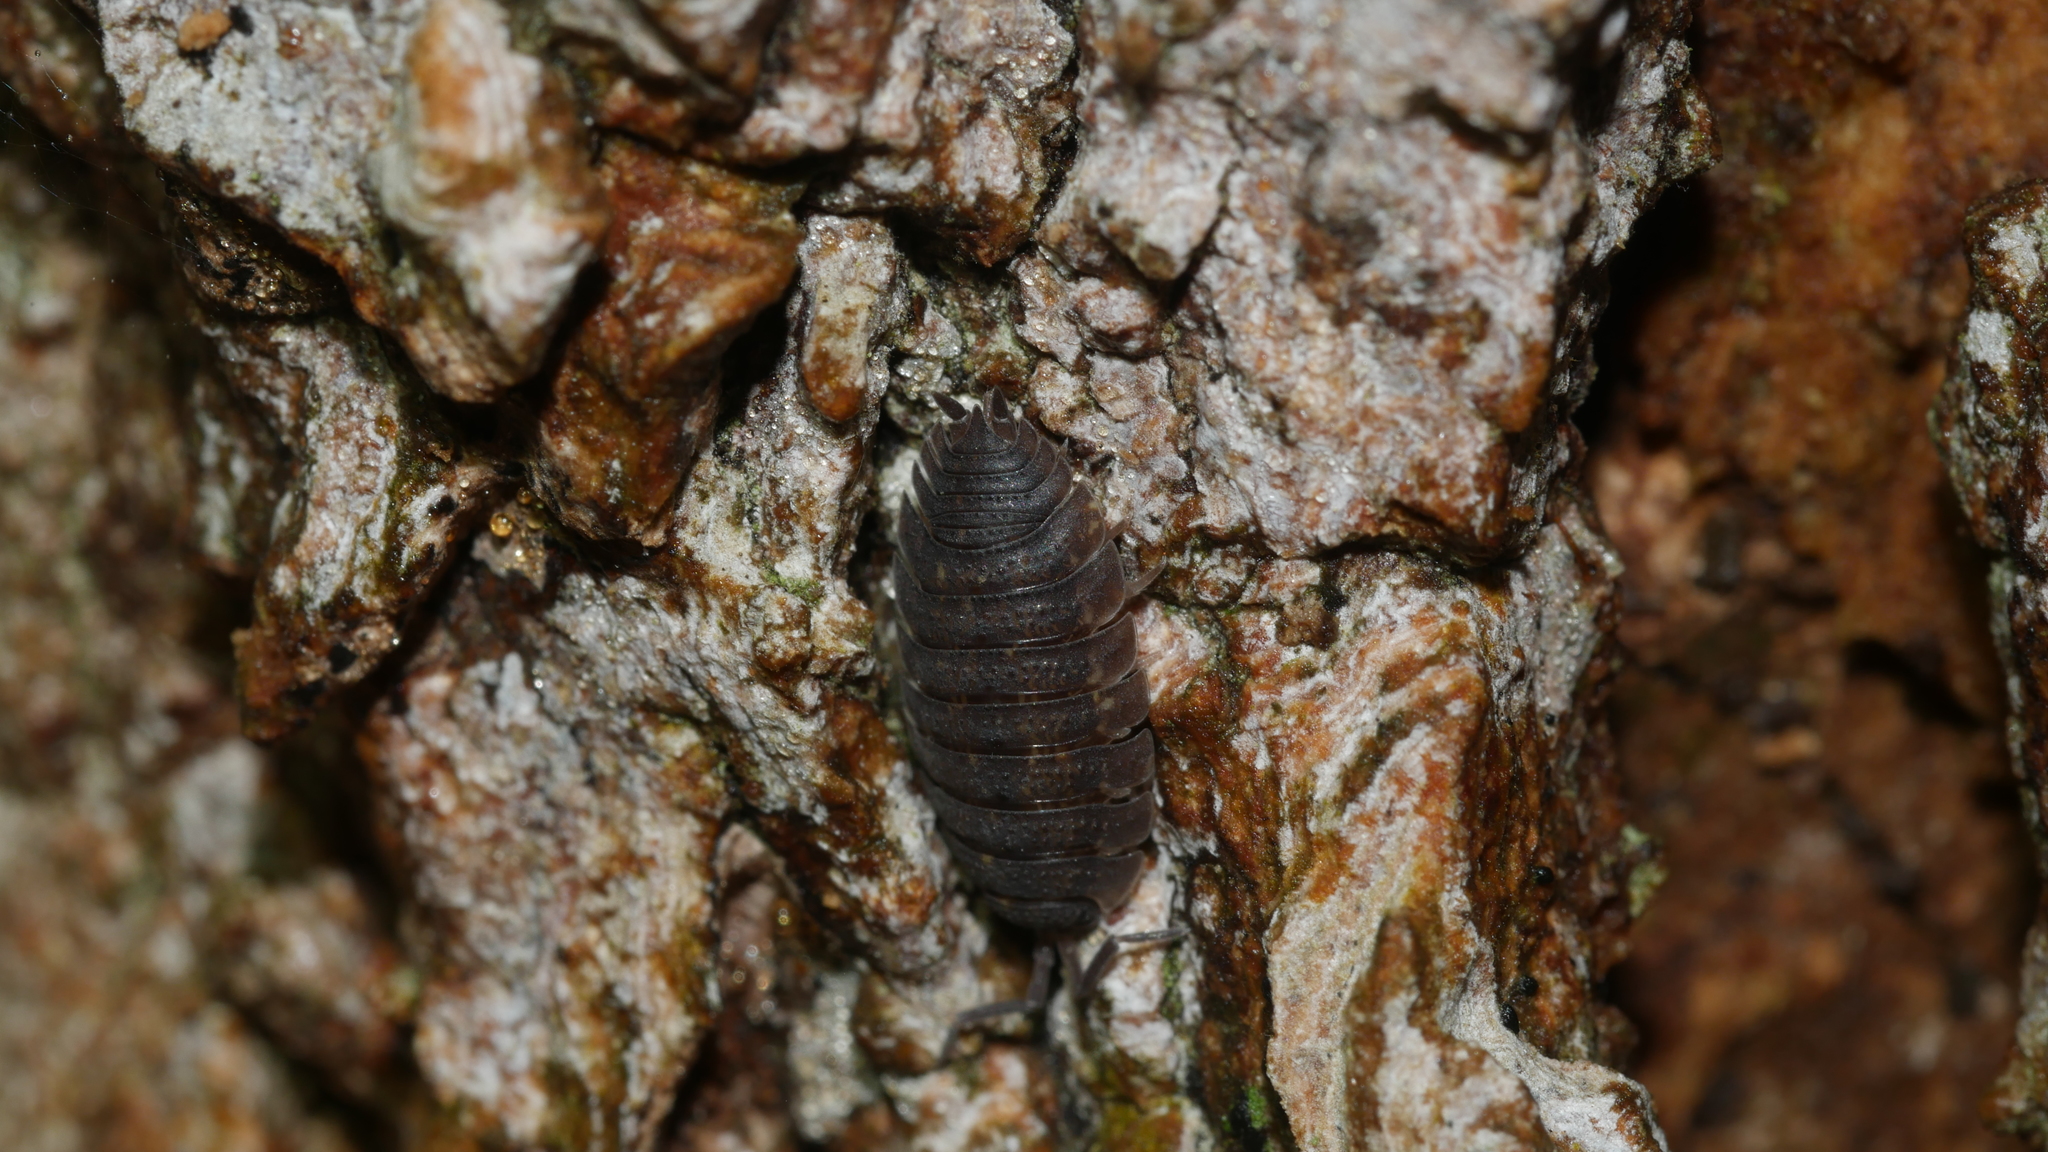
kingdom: Animalia
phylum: Arthropoda
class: Malacostraca
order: Isopoda
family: Porcellionidae
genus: Porcellio
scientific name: Porcellio scaber
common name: Common rough woodlouse
